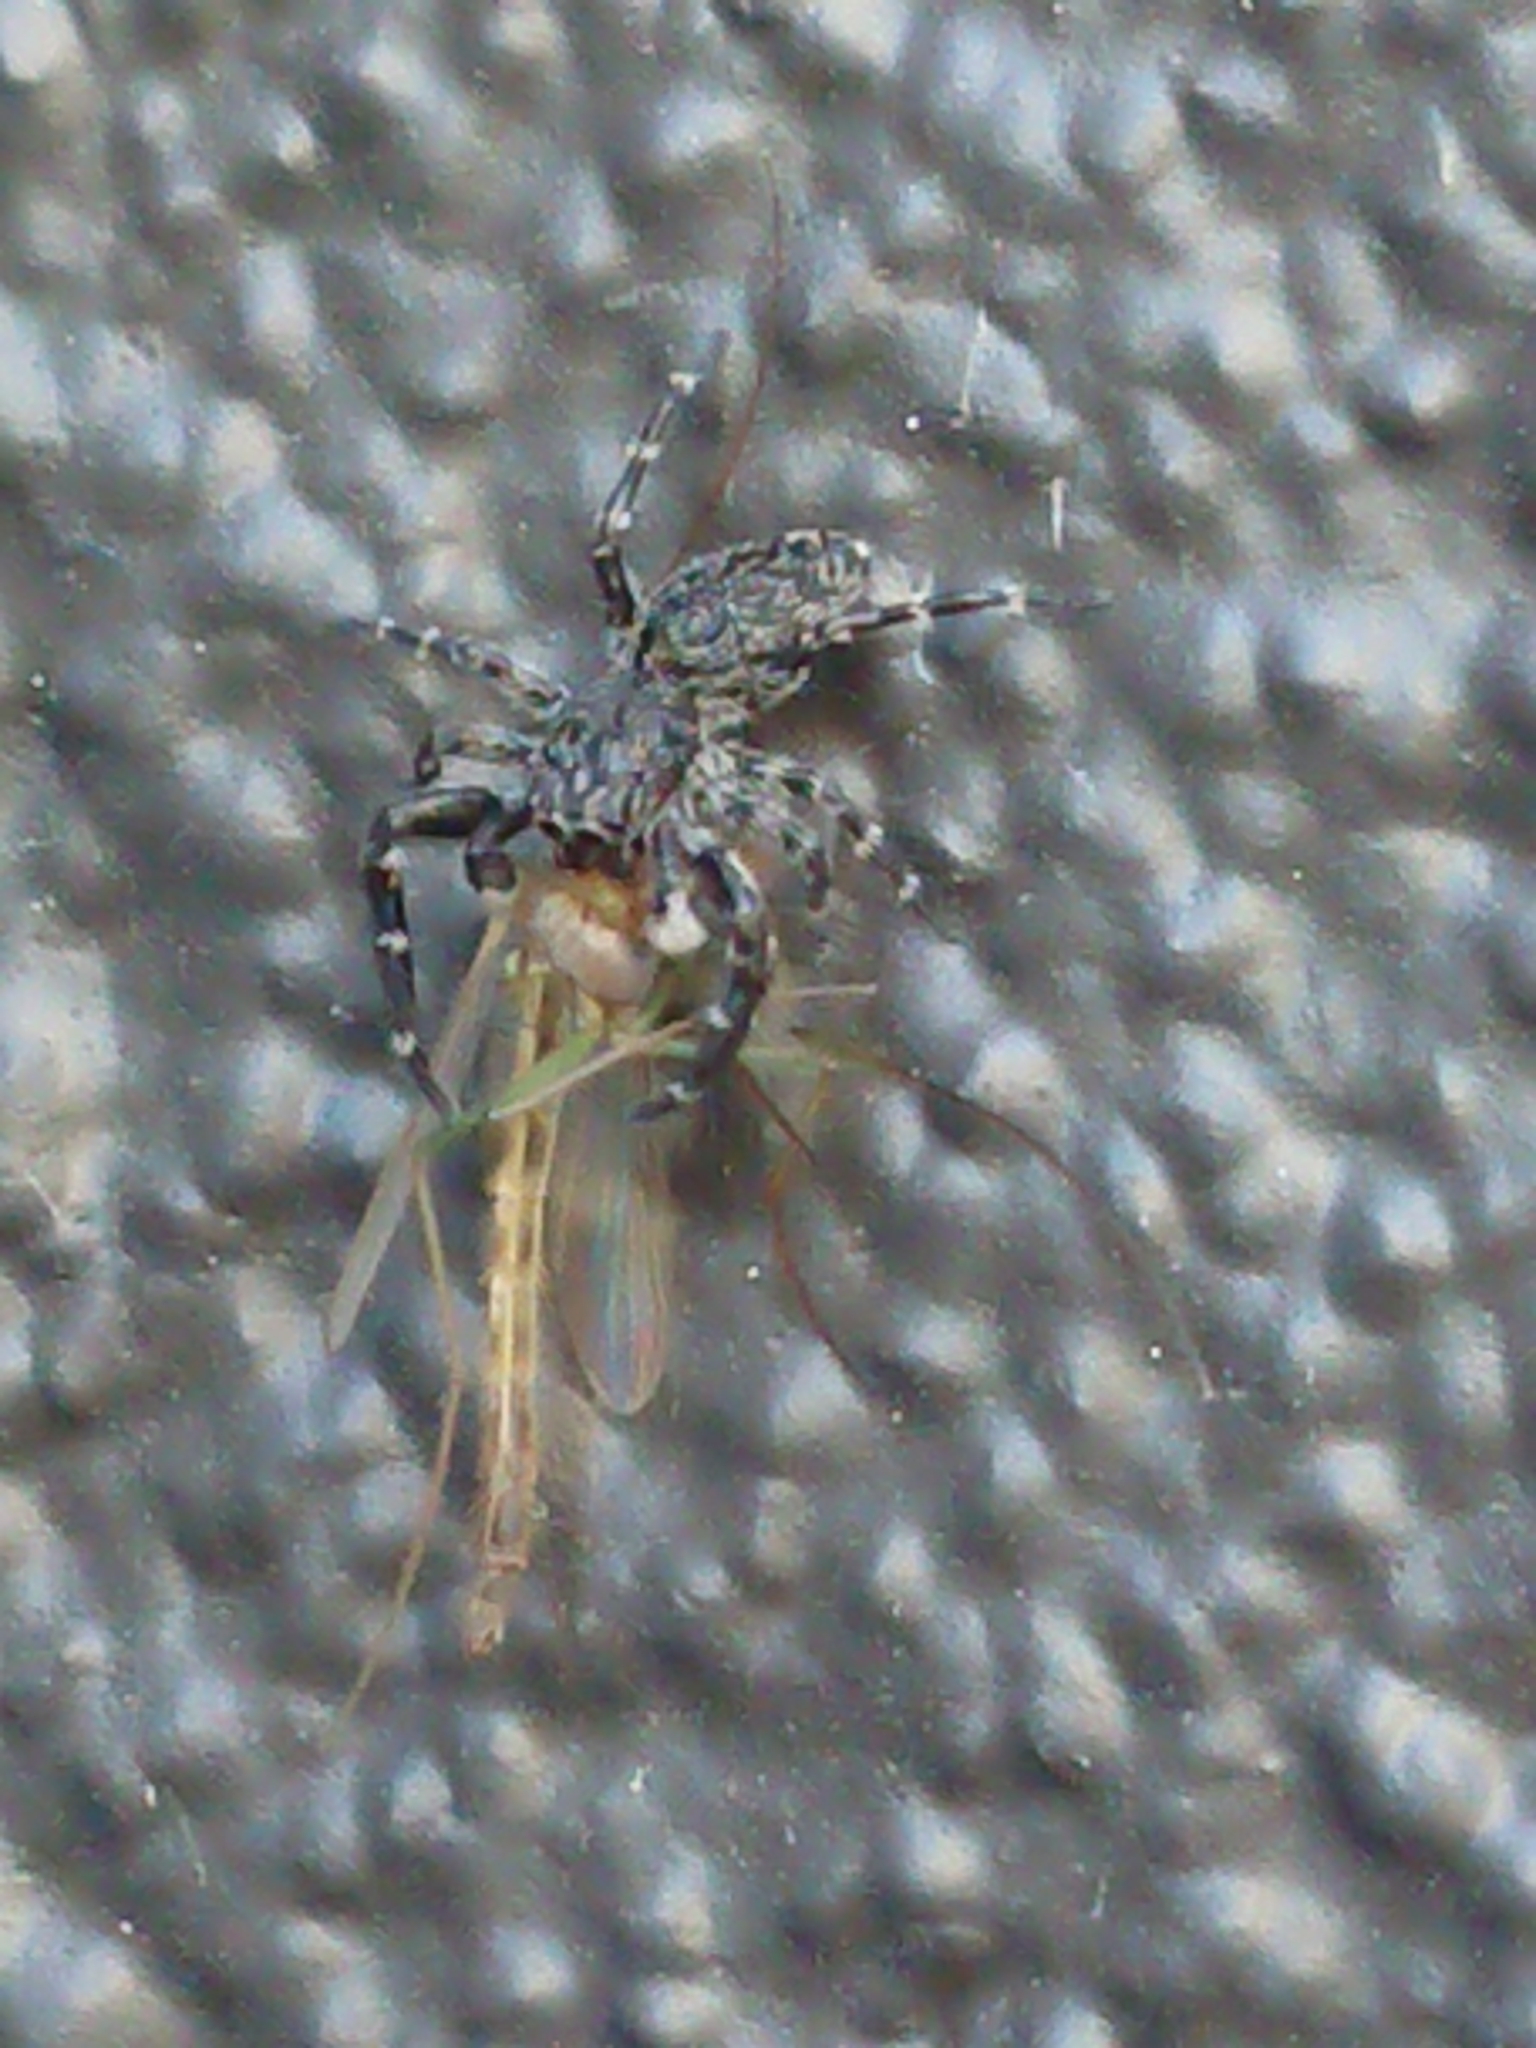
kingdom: Animalia
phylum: Arthropoda
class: Arachnida
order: Araneae
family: Salticidae
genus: Adoxotoma
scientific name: Adoxotoma forsteri
